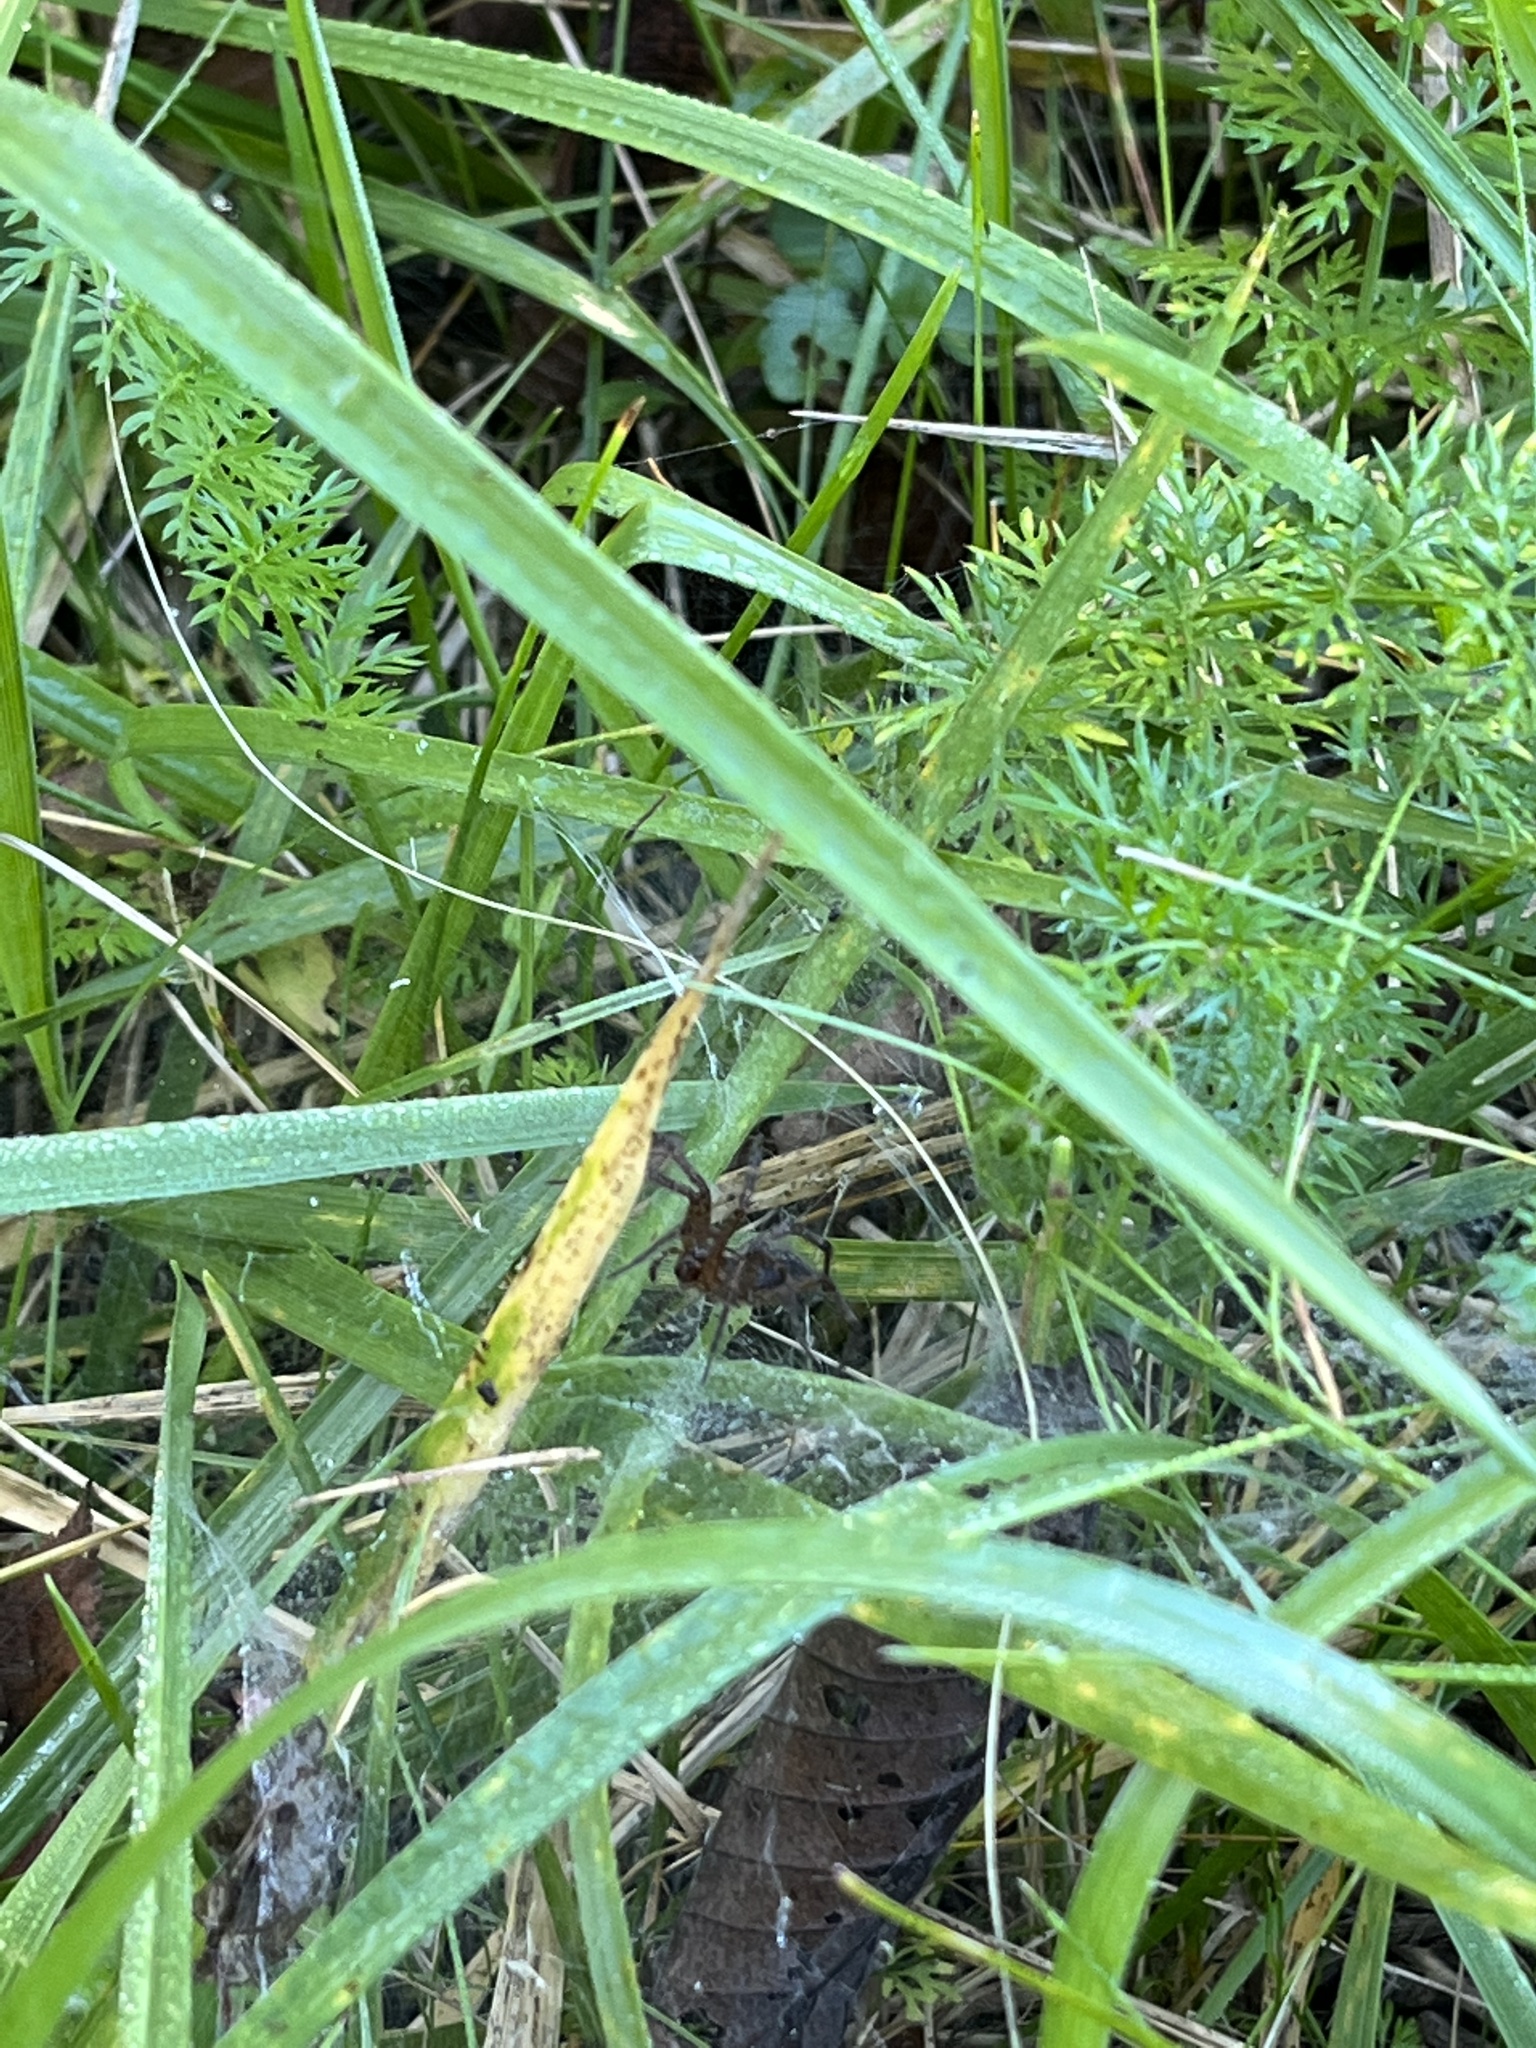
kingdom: Animalia
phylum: Arthropoda
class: Arachnida
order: Araneae
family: Agelenidae
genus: Agelenopsis
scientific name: Agelenopsis
